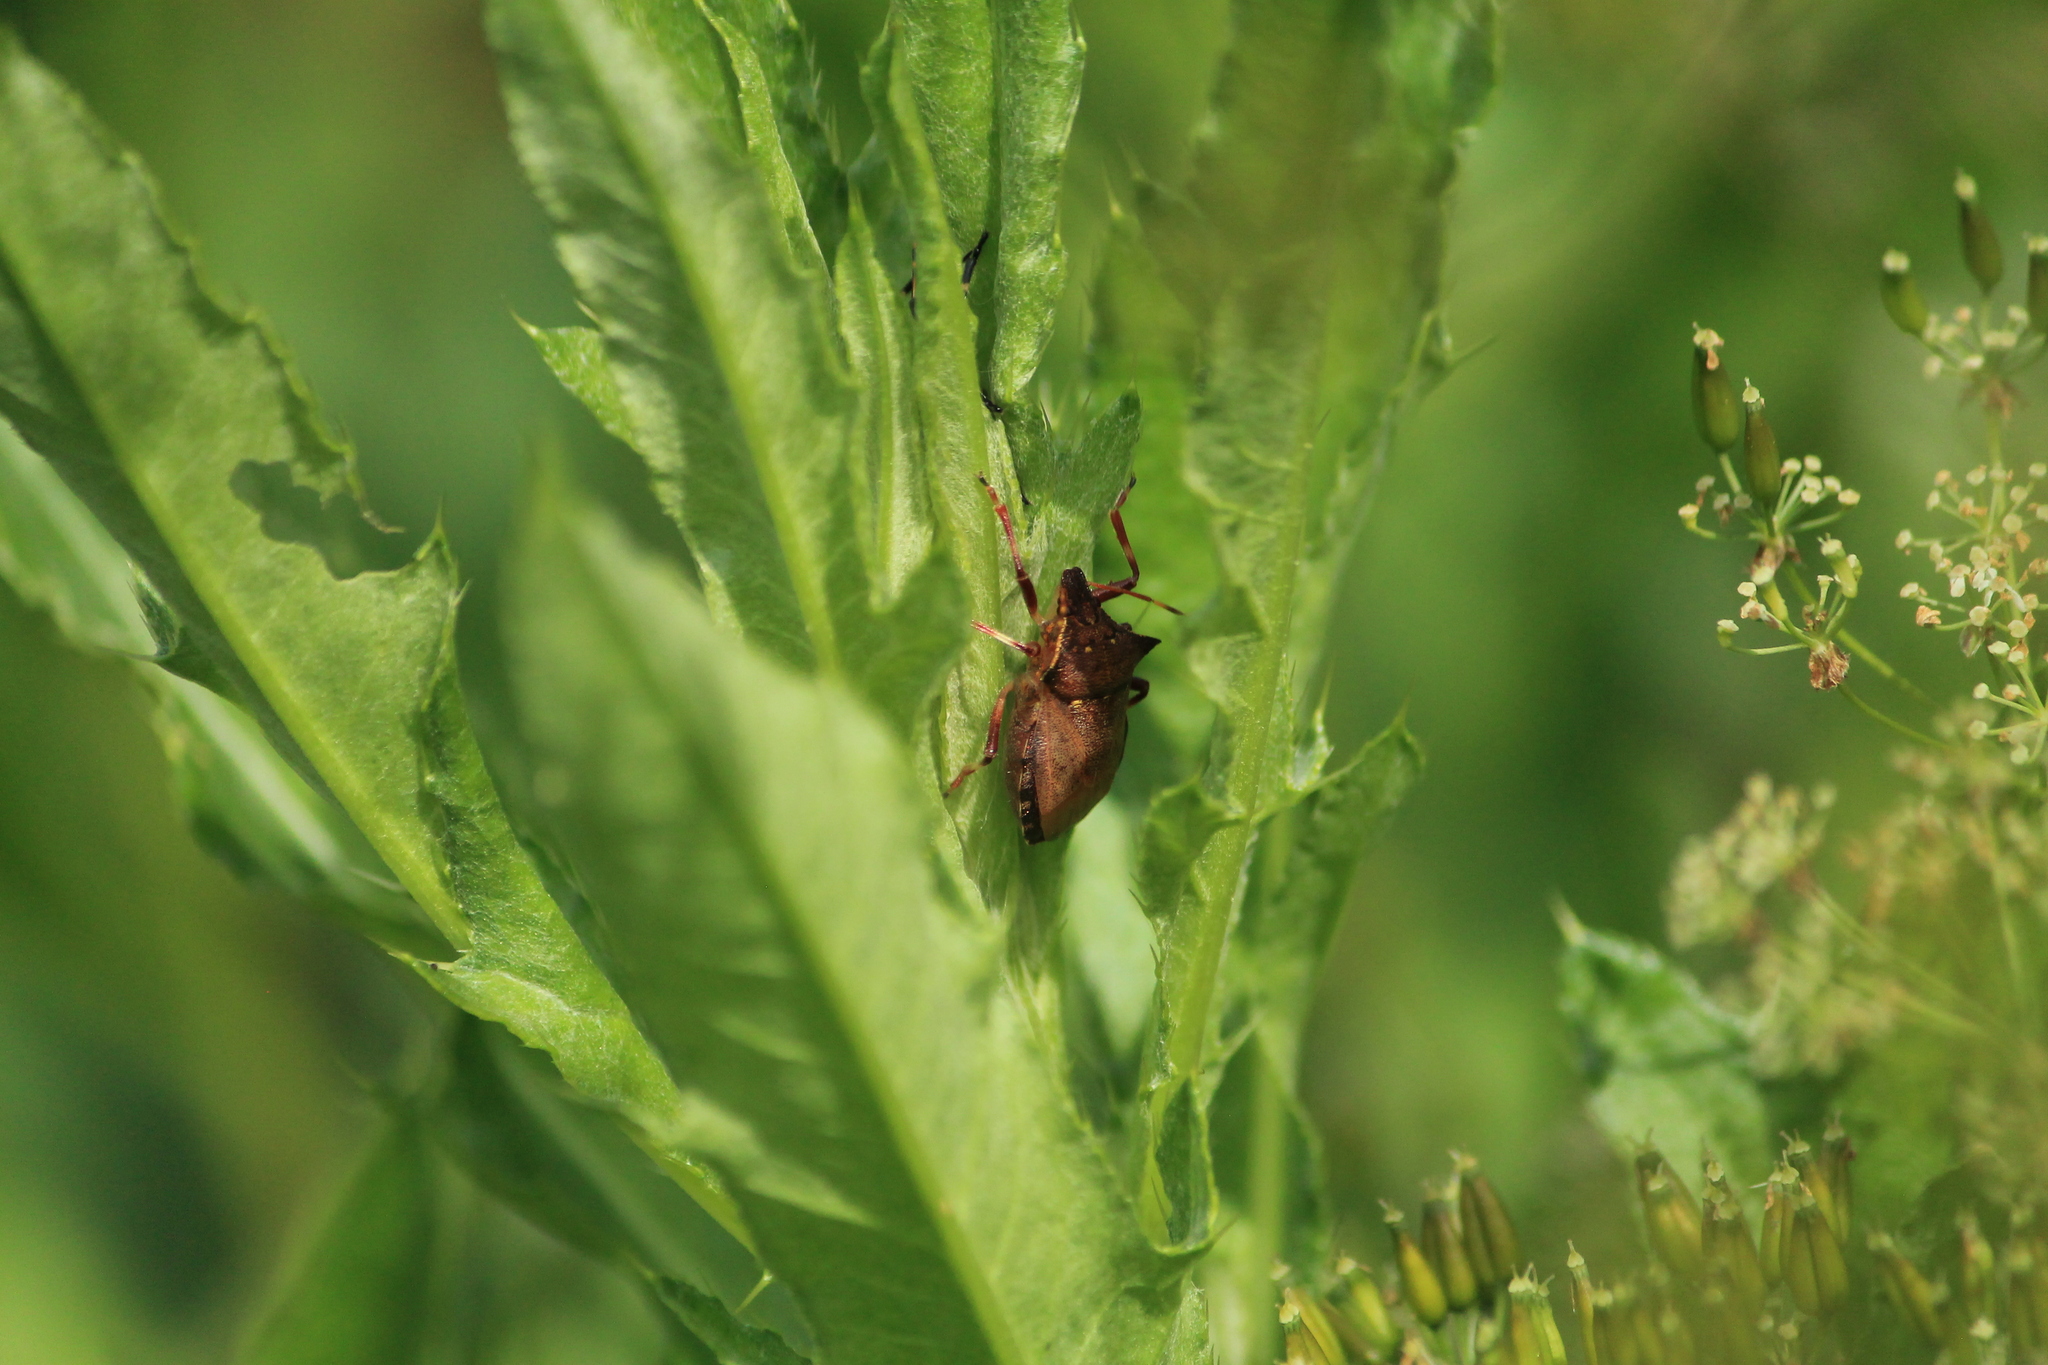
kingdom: Animalia
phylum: Arthropoda
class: Insecta
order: Hemiptera
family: Pentatomidae
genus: Picromerus
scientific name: Picromerus bidens
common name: Spiked shieldbug
